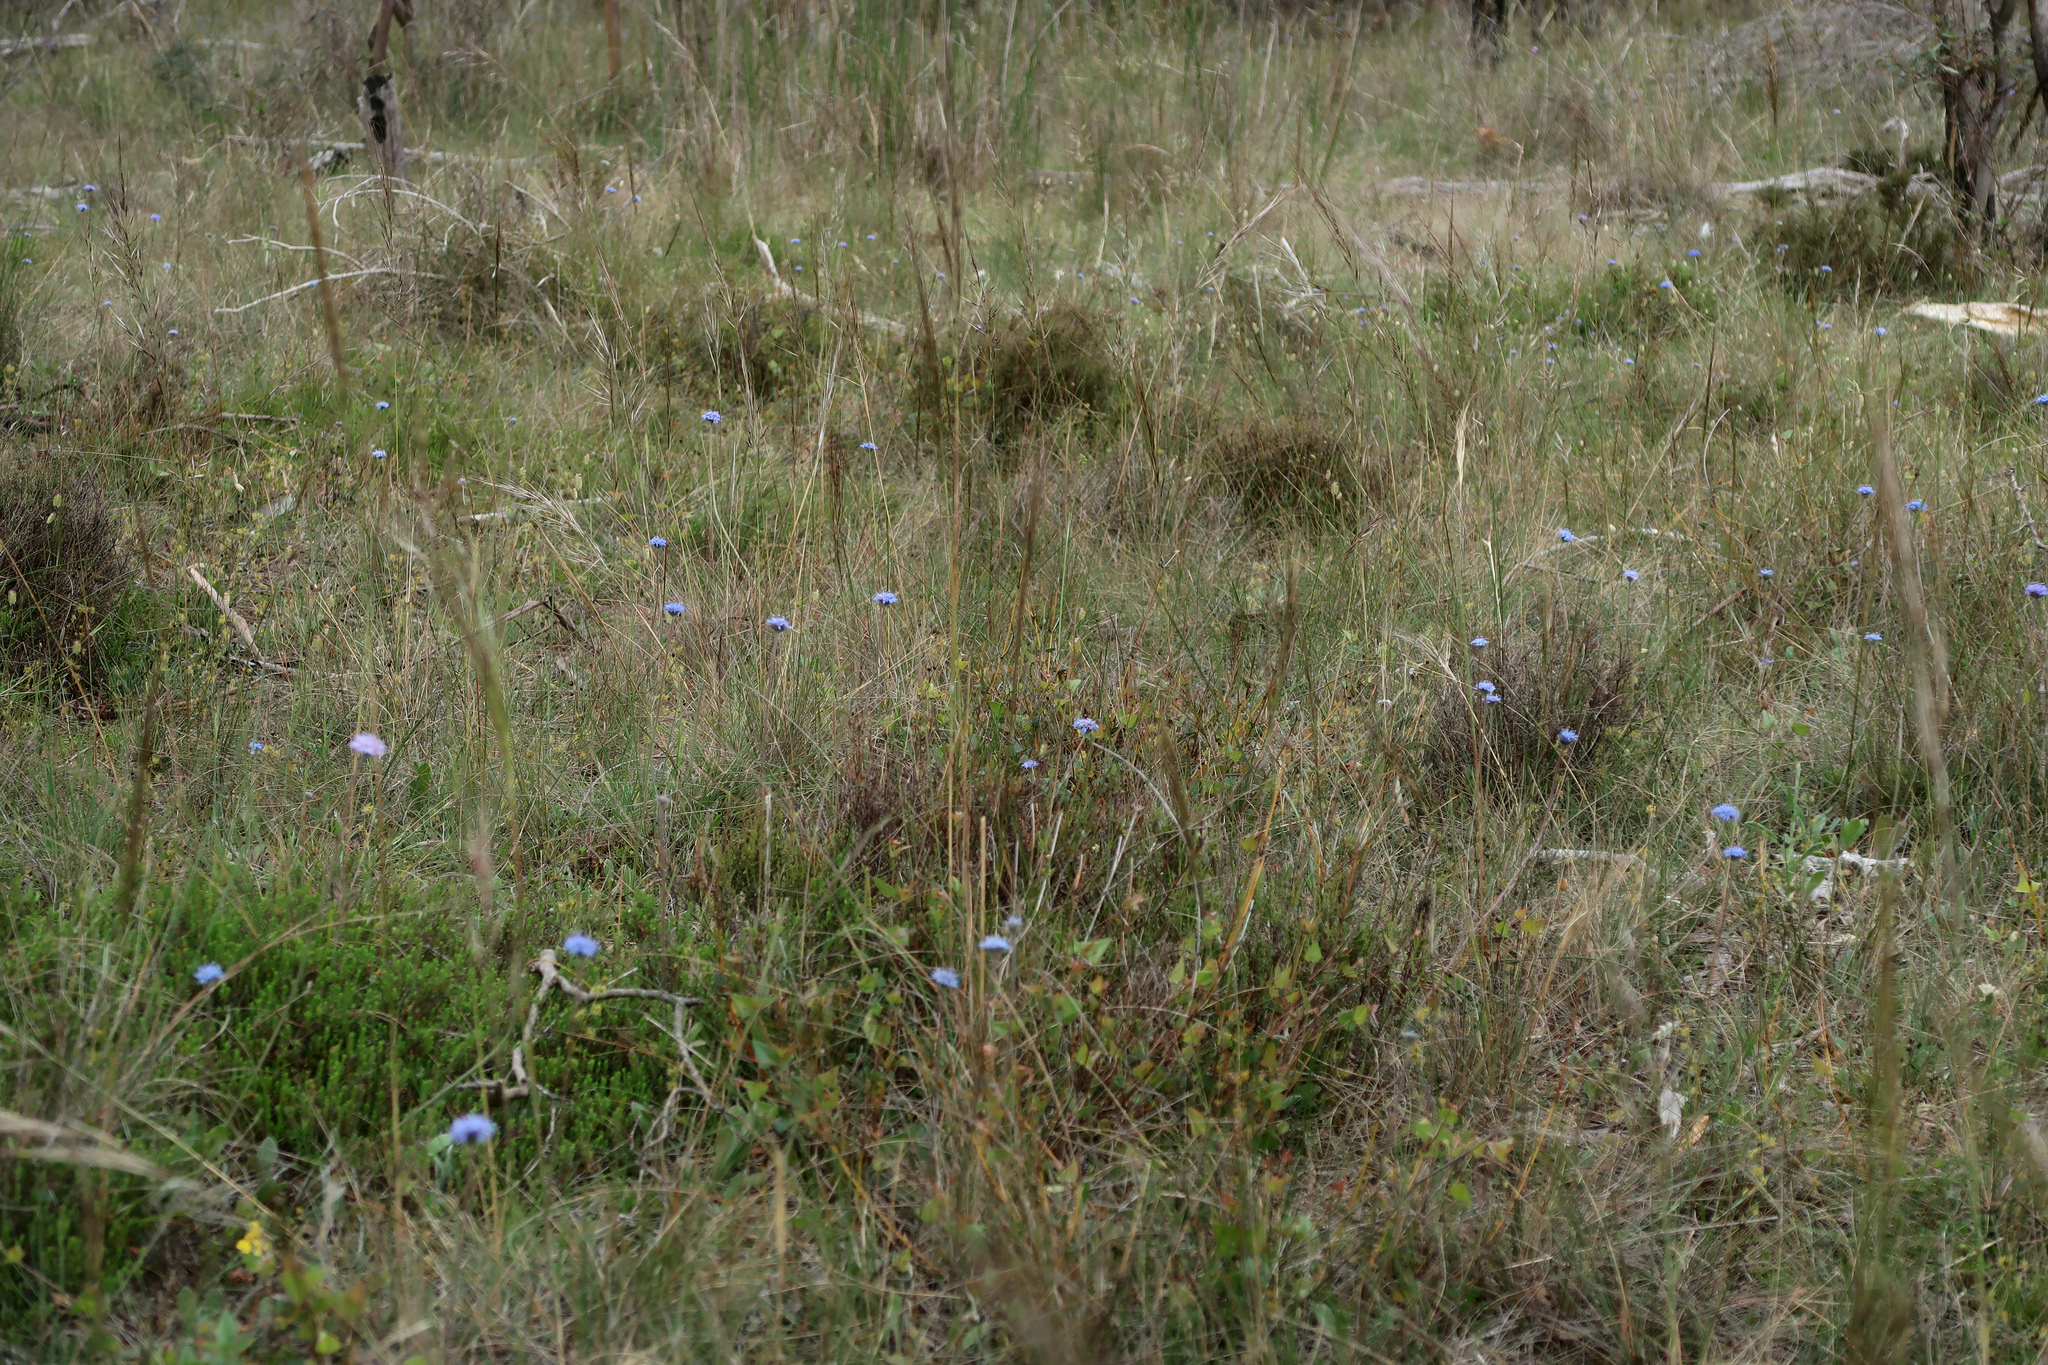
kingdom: Plantae
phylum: Tracheophyta
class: Magnoliopsida
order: Asterales
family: Goodeniaceae
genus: Brunonia
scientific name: Brunonia australis
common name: Blue pincushion
